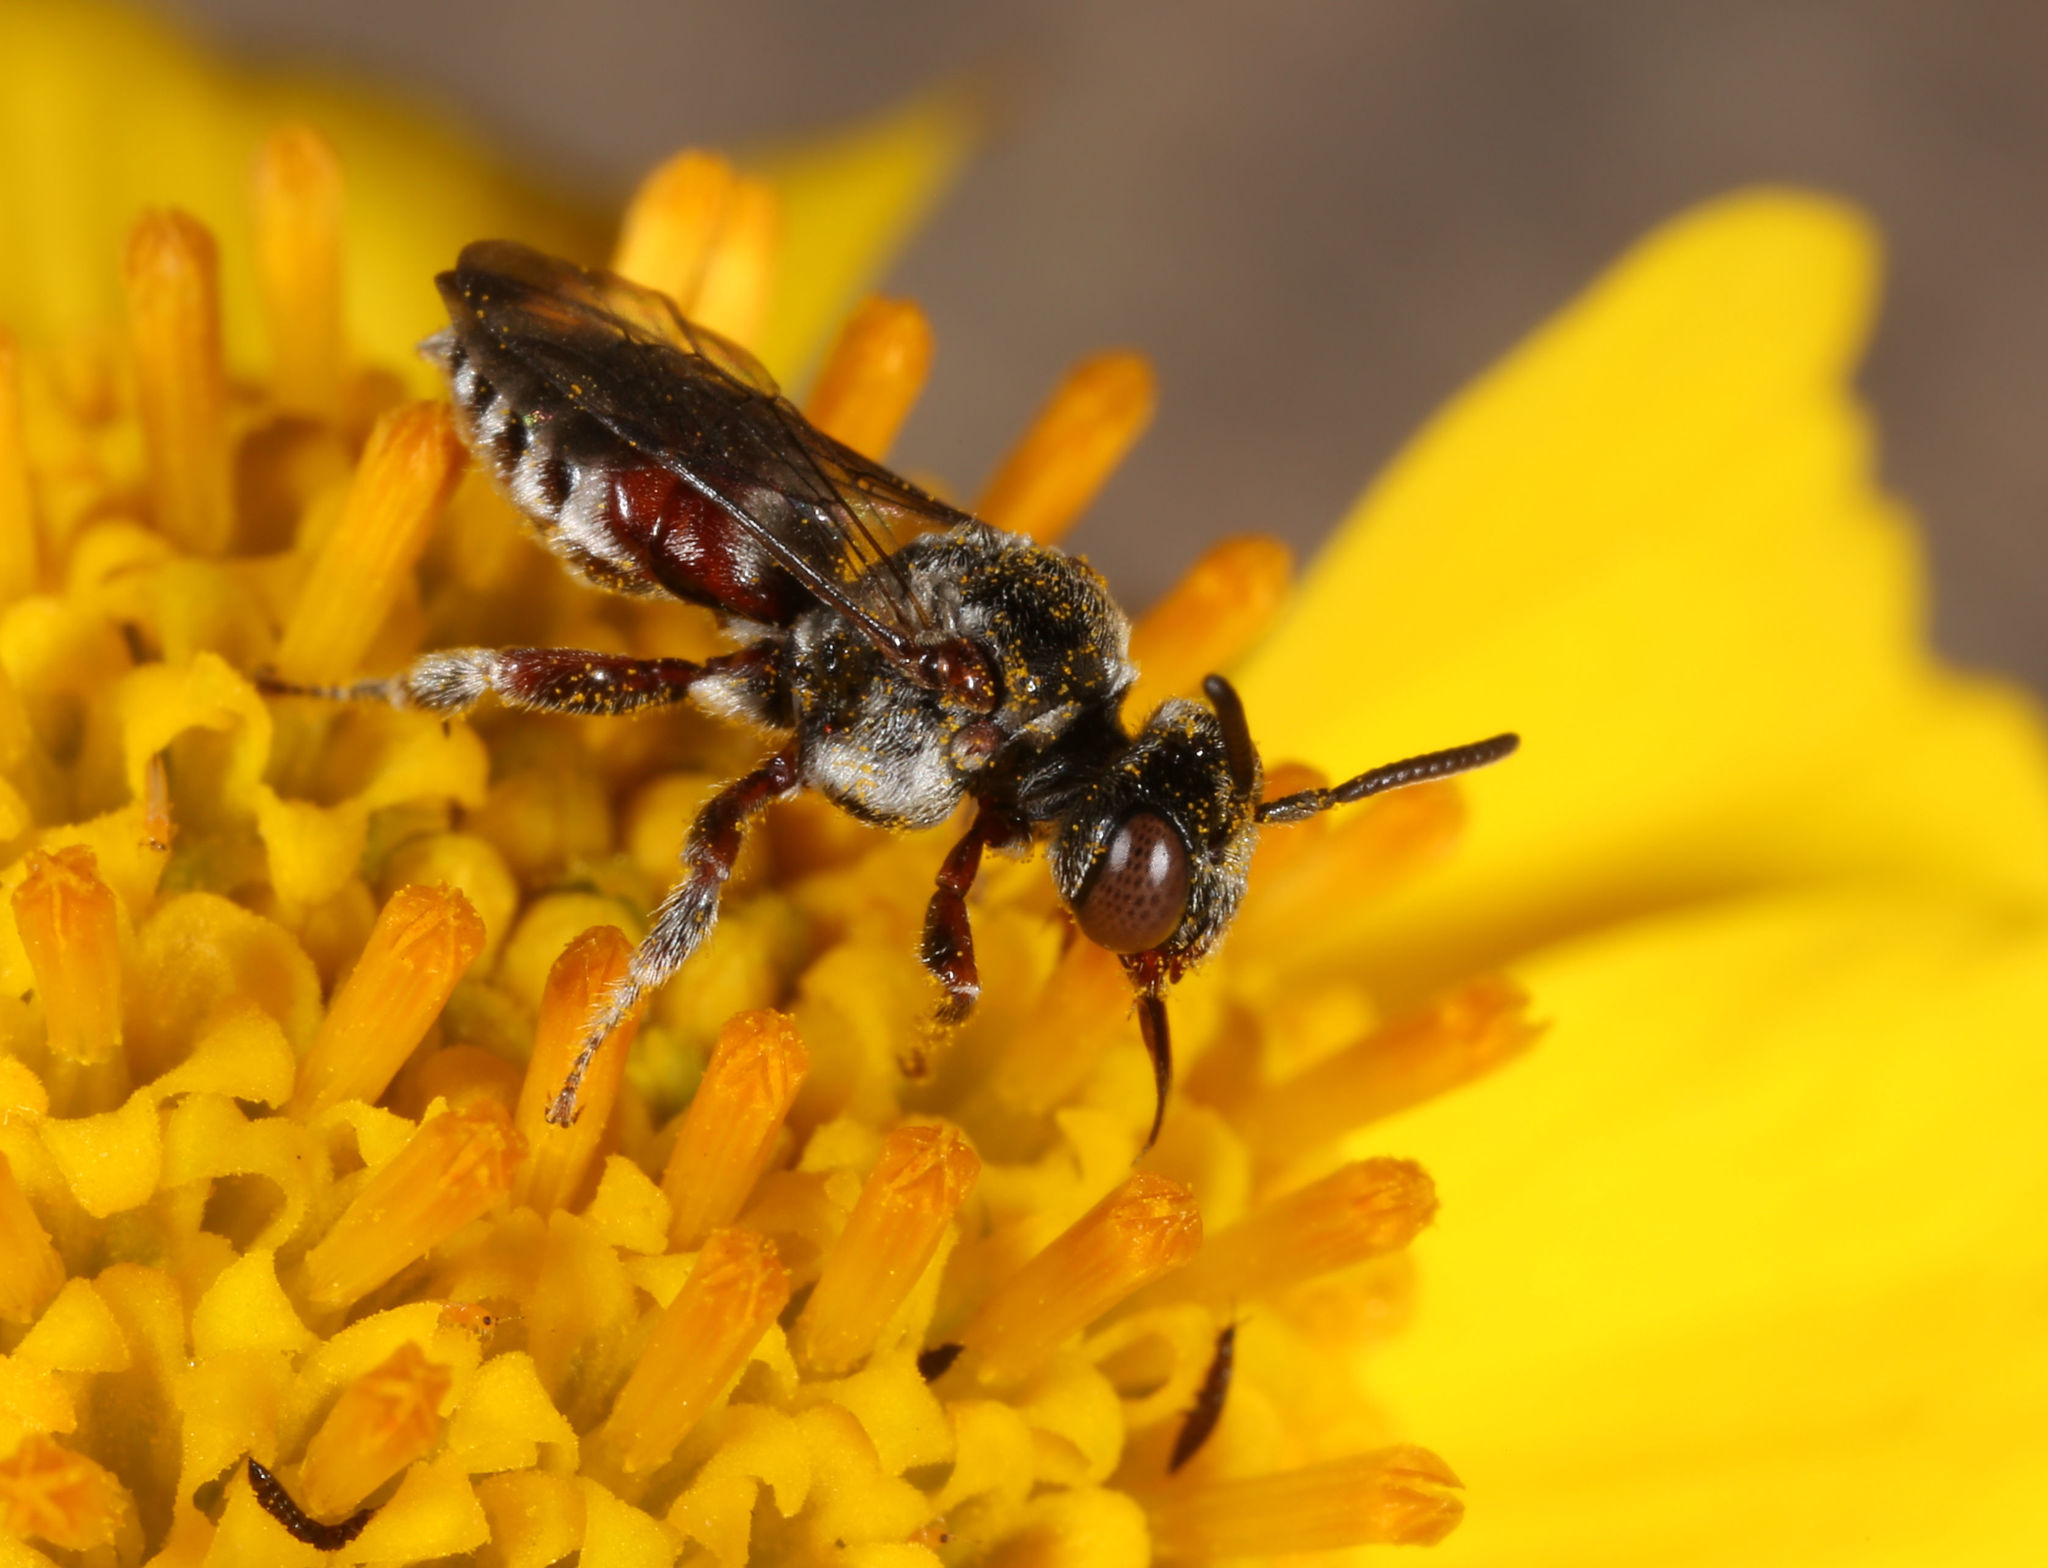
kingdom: Animalia
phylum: Arthropoda
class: Insecta
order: Hymenoptera
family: Apidae
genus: Triopasites
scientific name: Triopasites penniger
